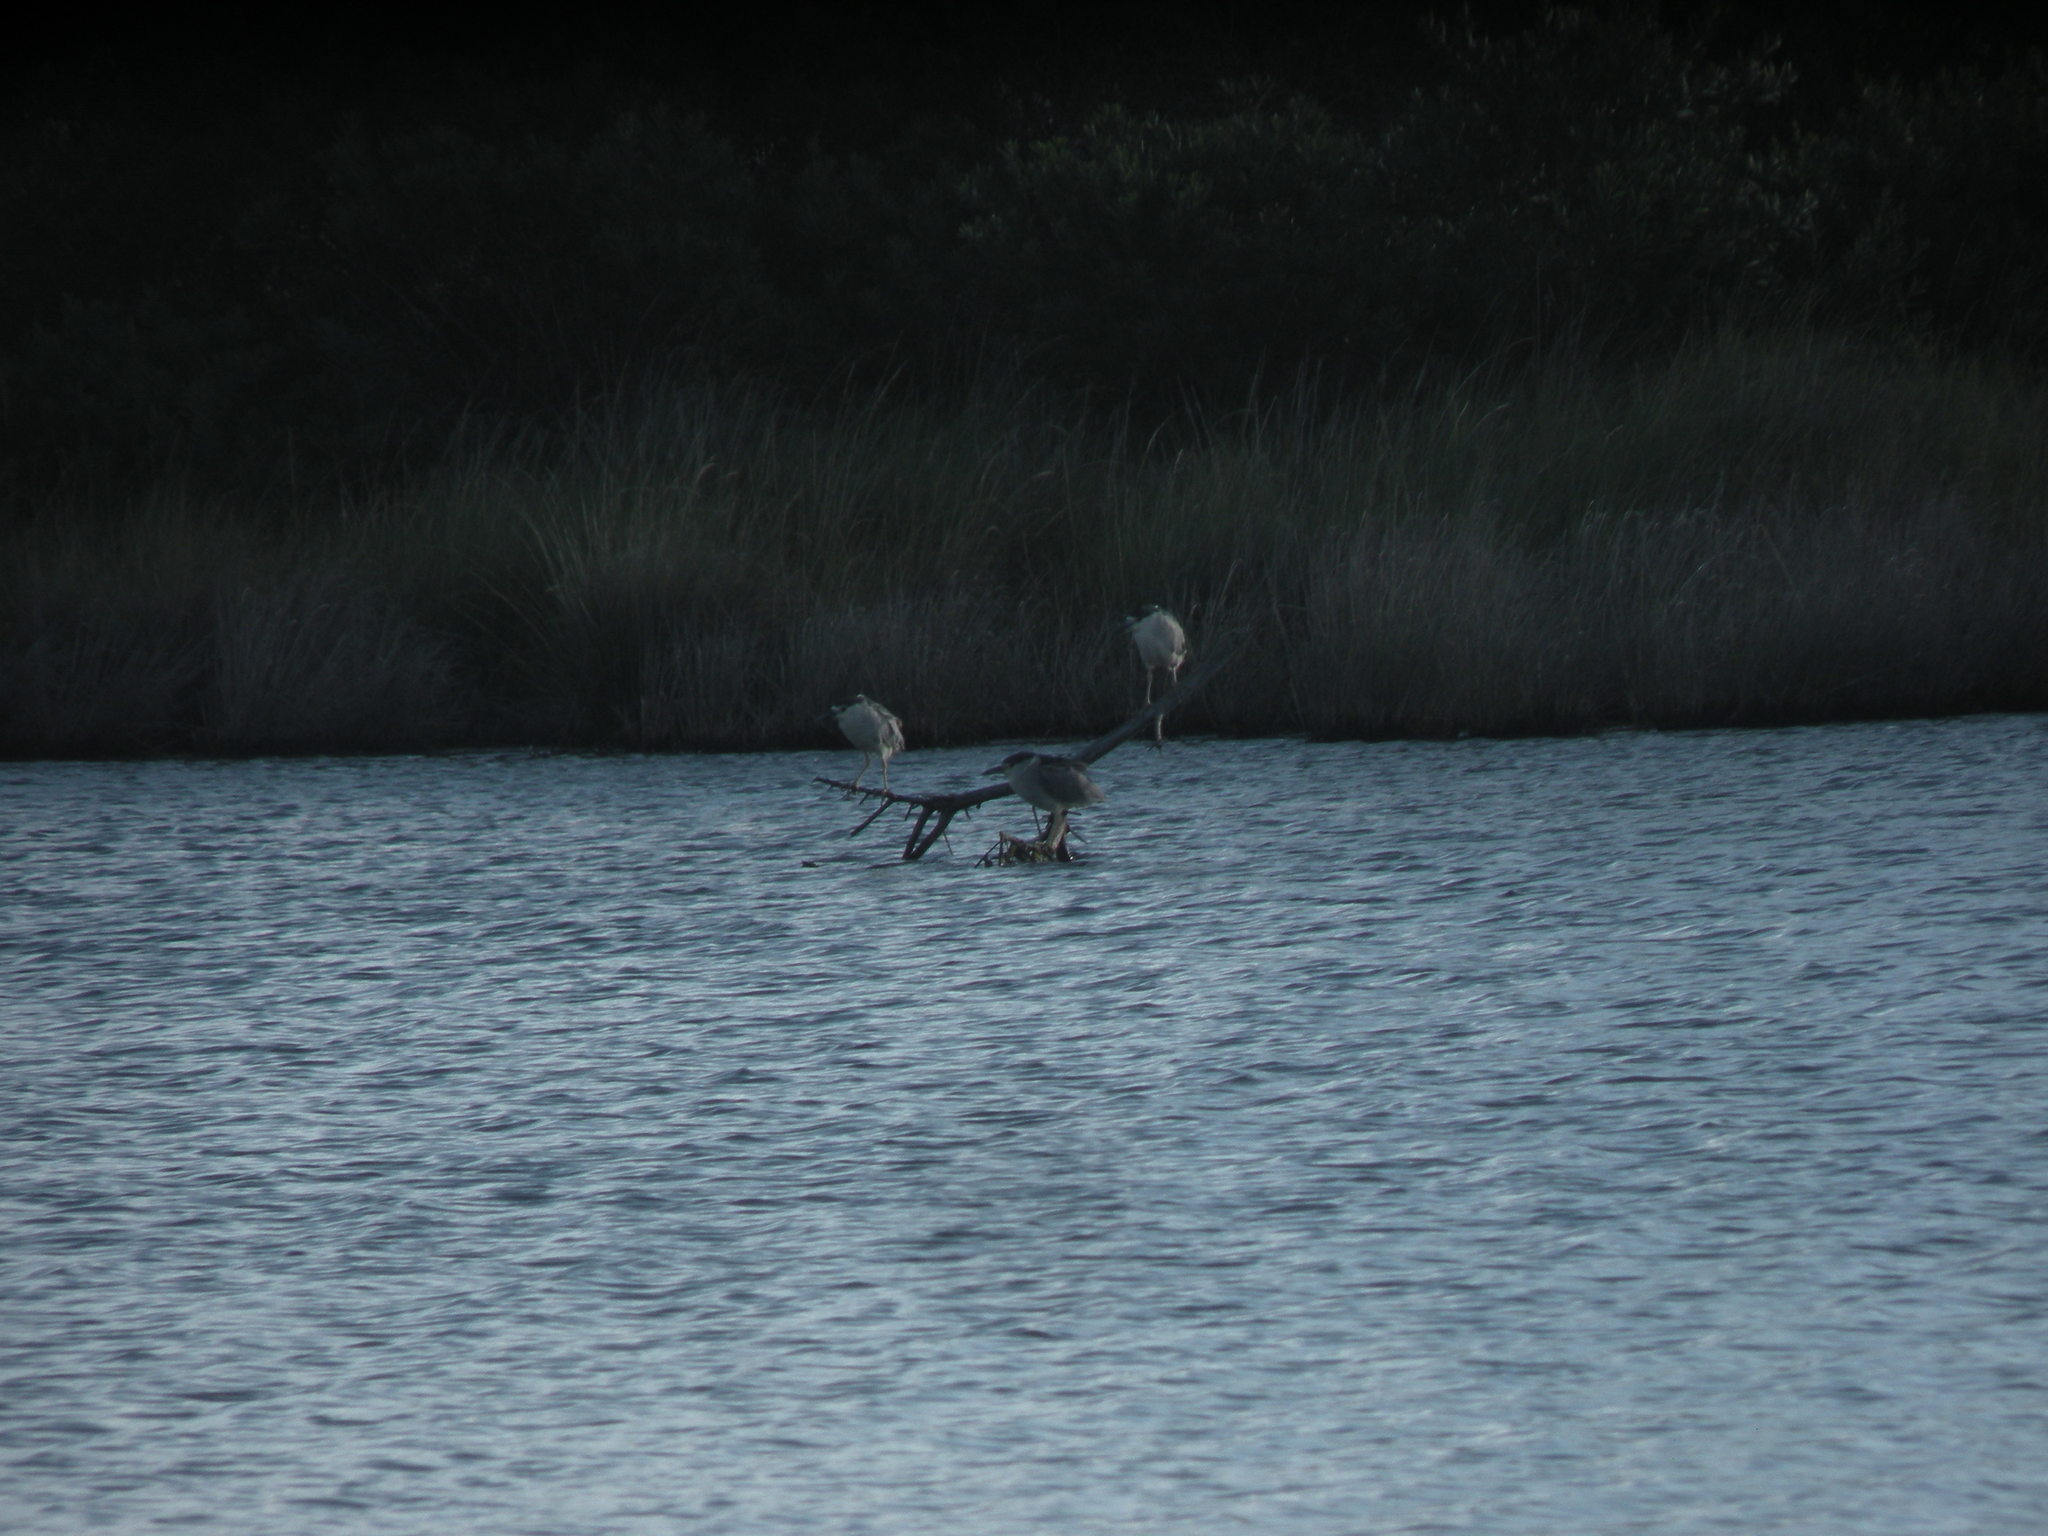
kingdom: Animalia
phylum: Chordata
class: Aves
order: Pelecaniformes
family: Ardeidae
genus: Nycticorax
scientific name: Nycticorax nycticorax
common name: Black-crowned night heron
